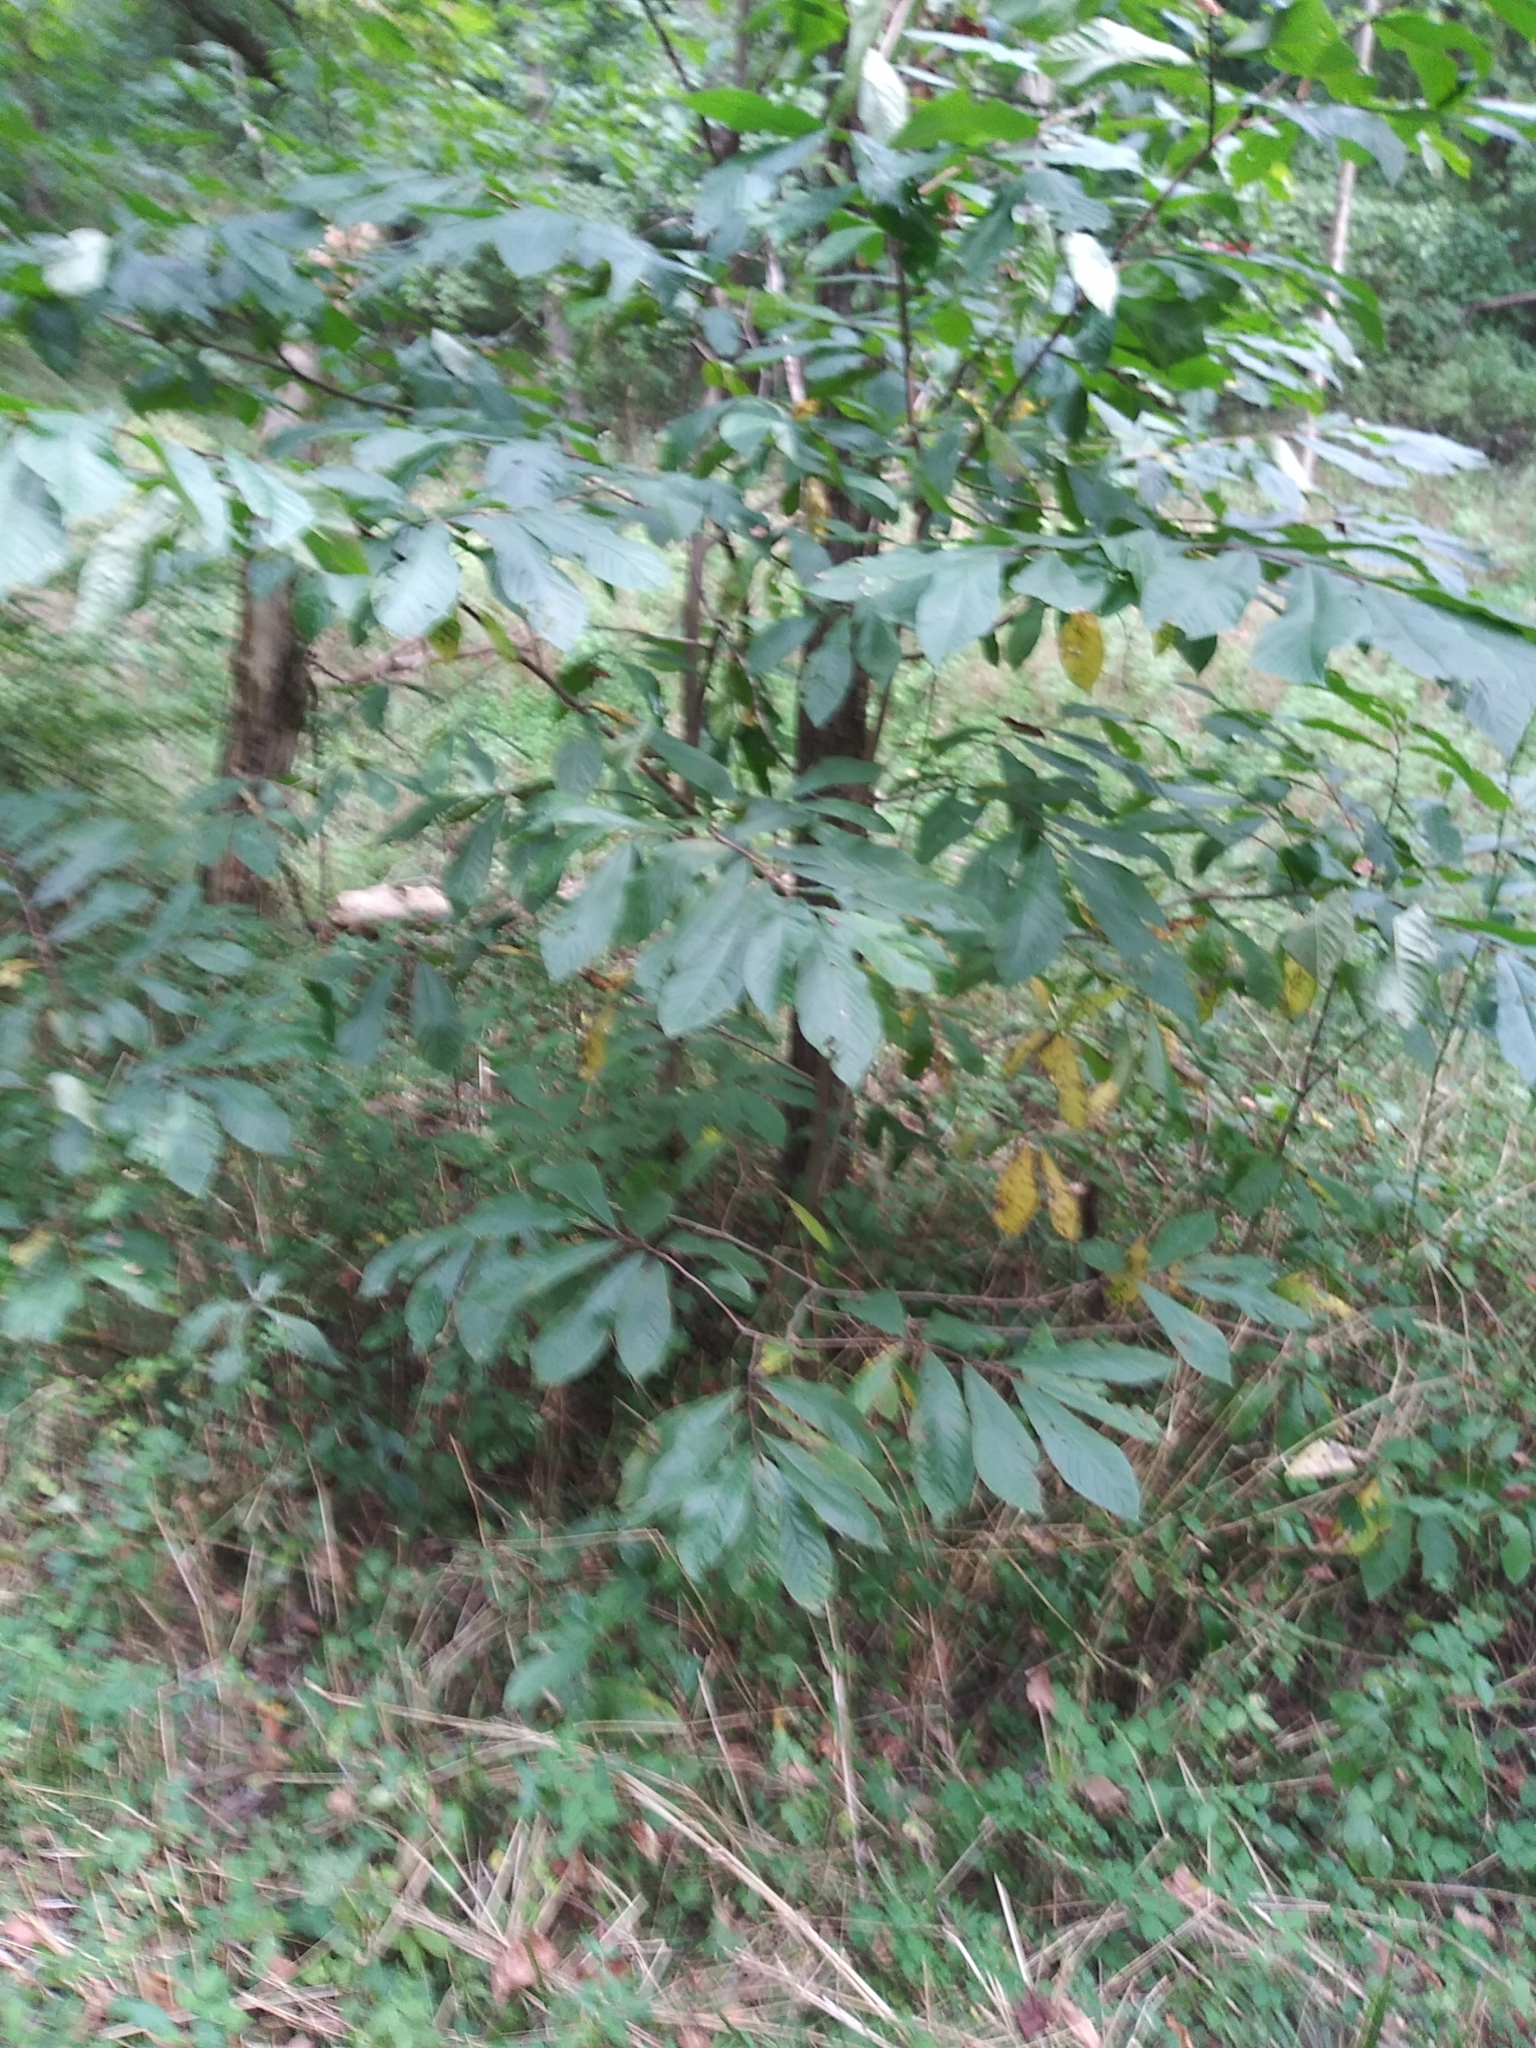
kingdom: Plantae
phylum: Tracheophyta
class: Magnoliopsida
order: Magnoliales
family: Annonaceae
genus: Asimina
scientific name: Asimina triloba
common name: Dog-banana
